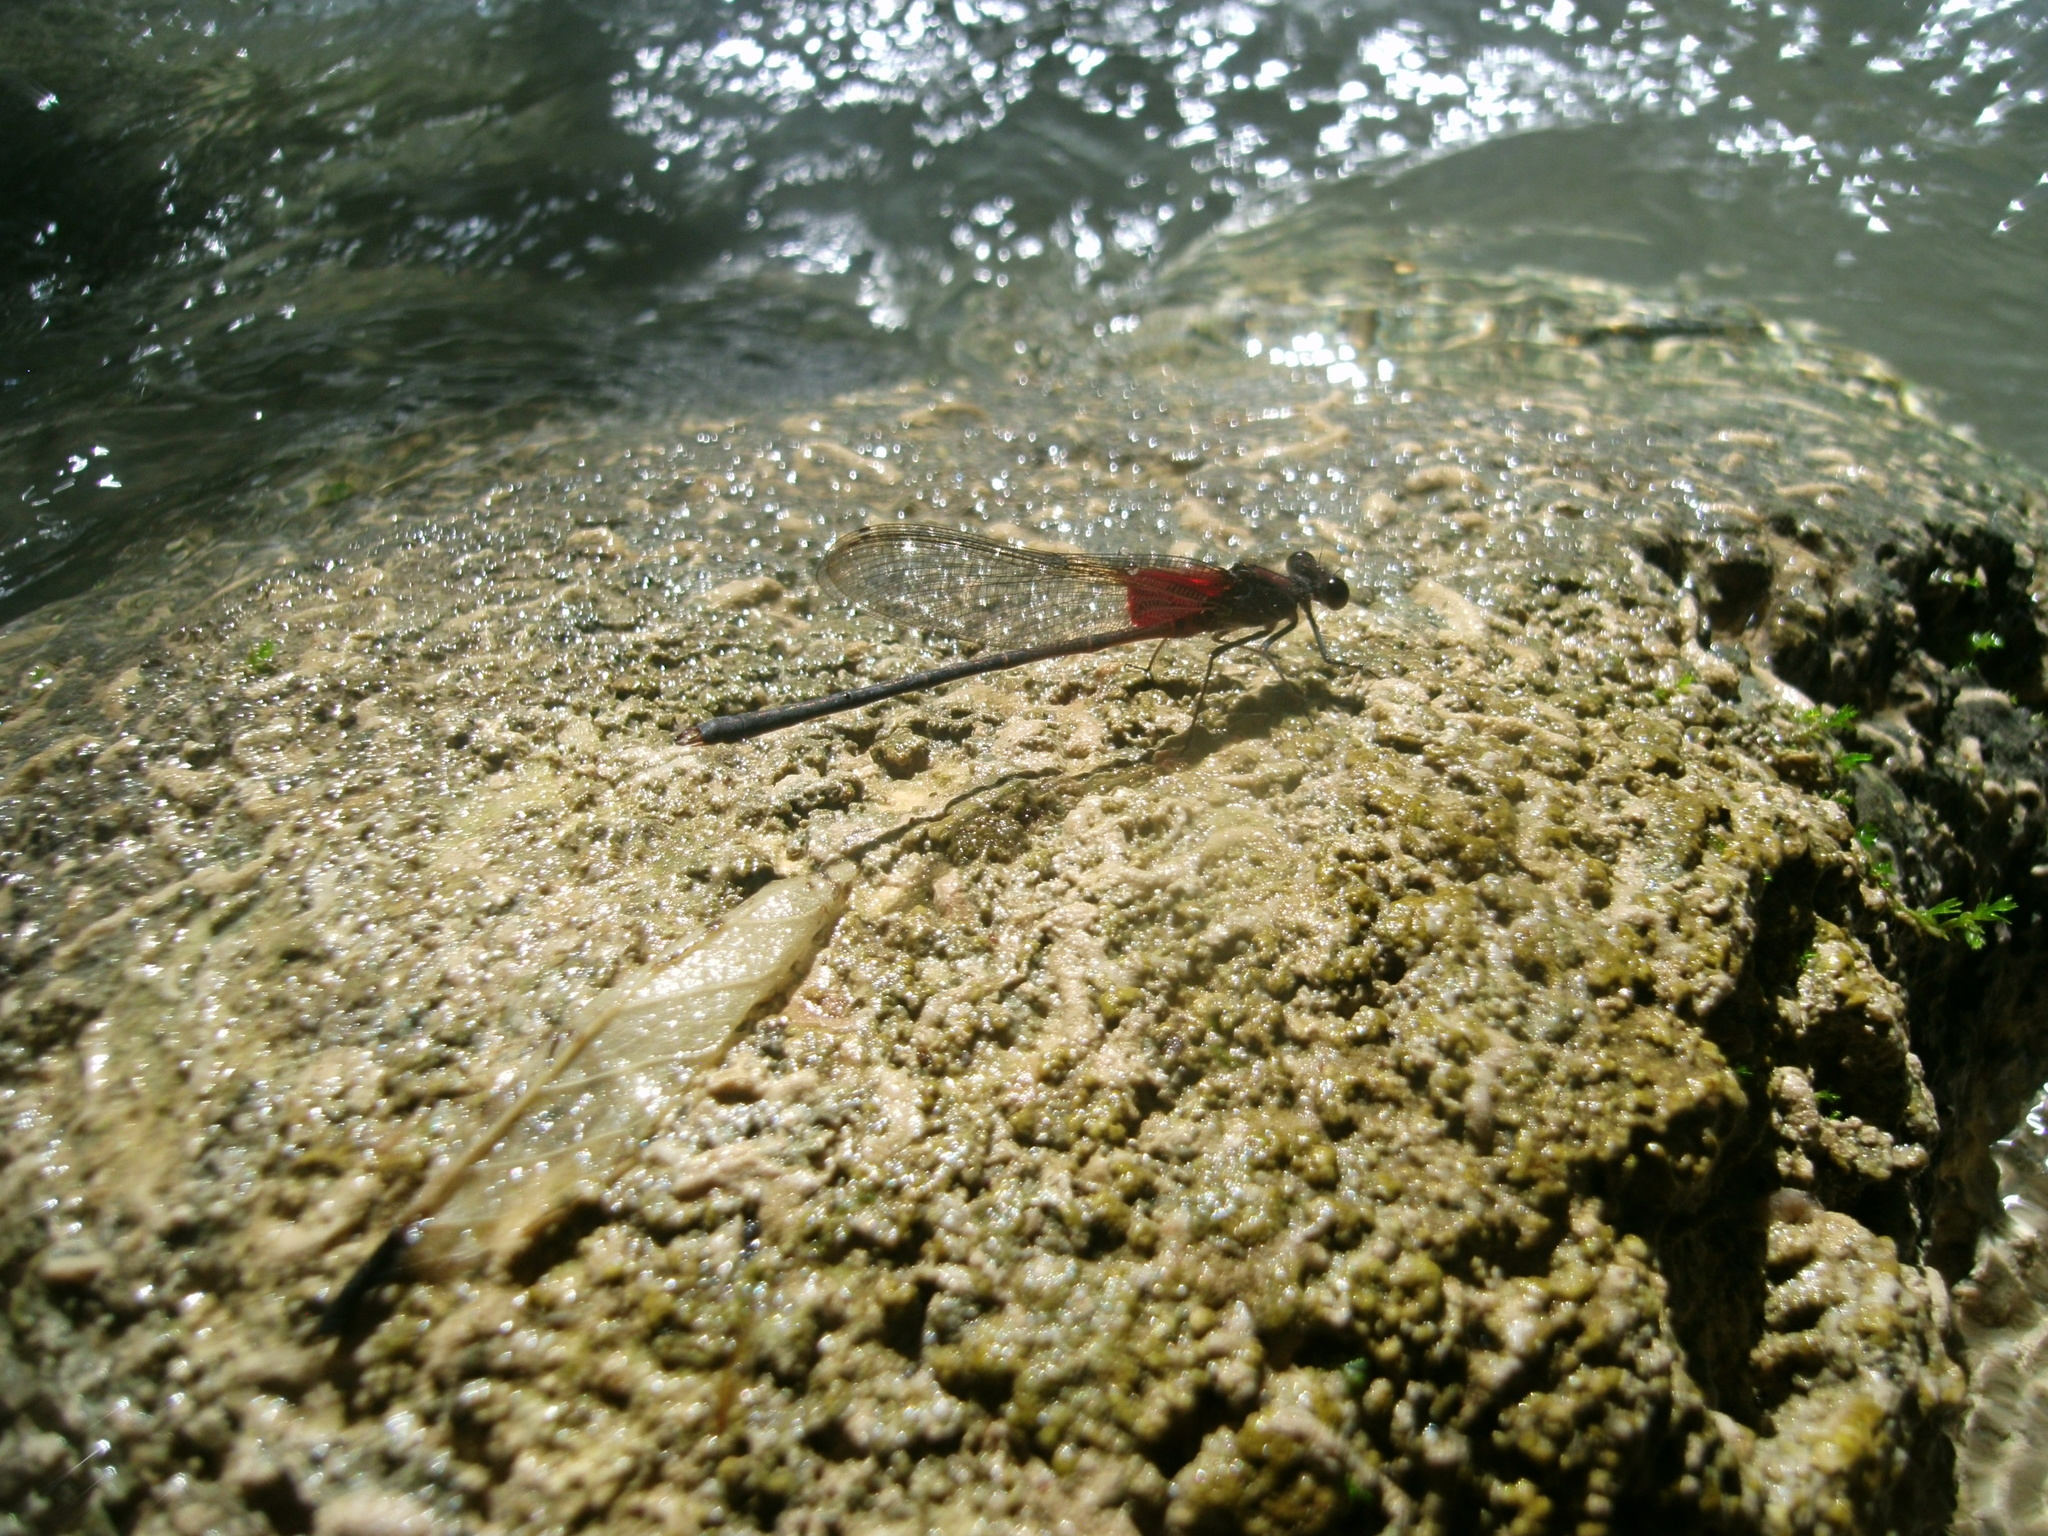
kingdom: Animalia
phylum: Arthropoda
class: Insecta
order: Odonata
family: Calopterygidae
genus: Hetaerina
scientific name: Hetaerina americana
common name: American rubyspot
